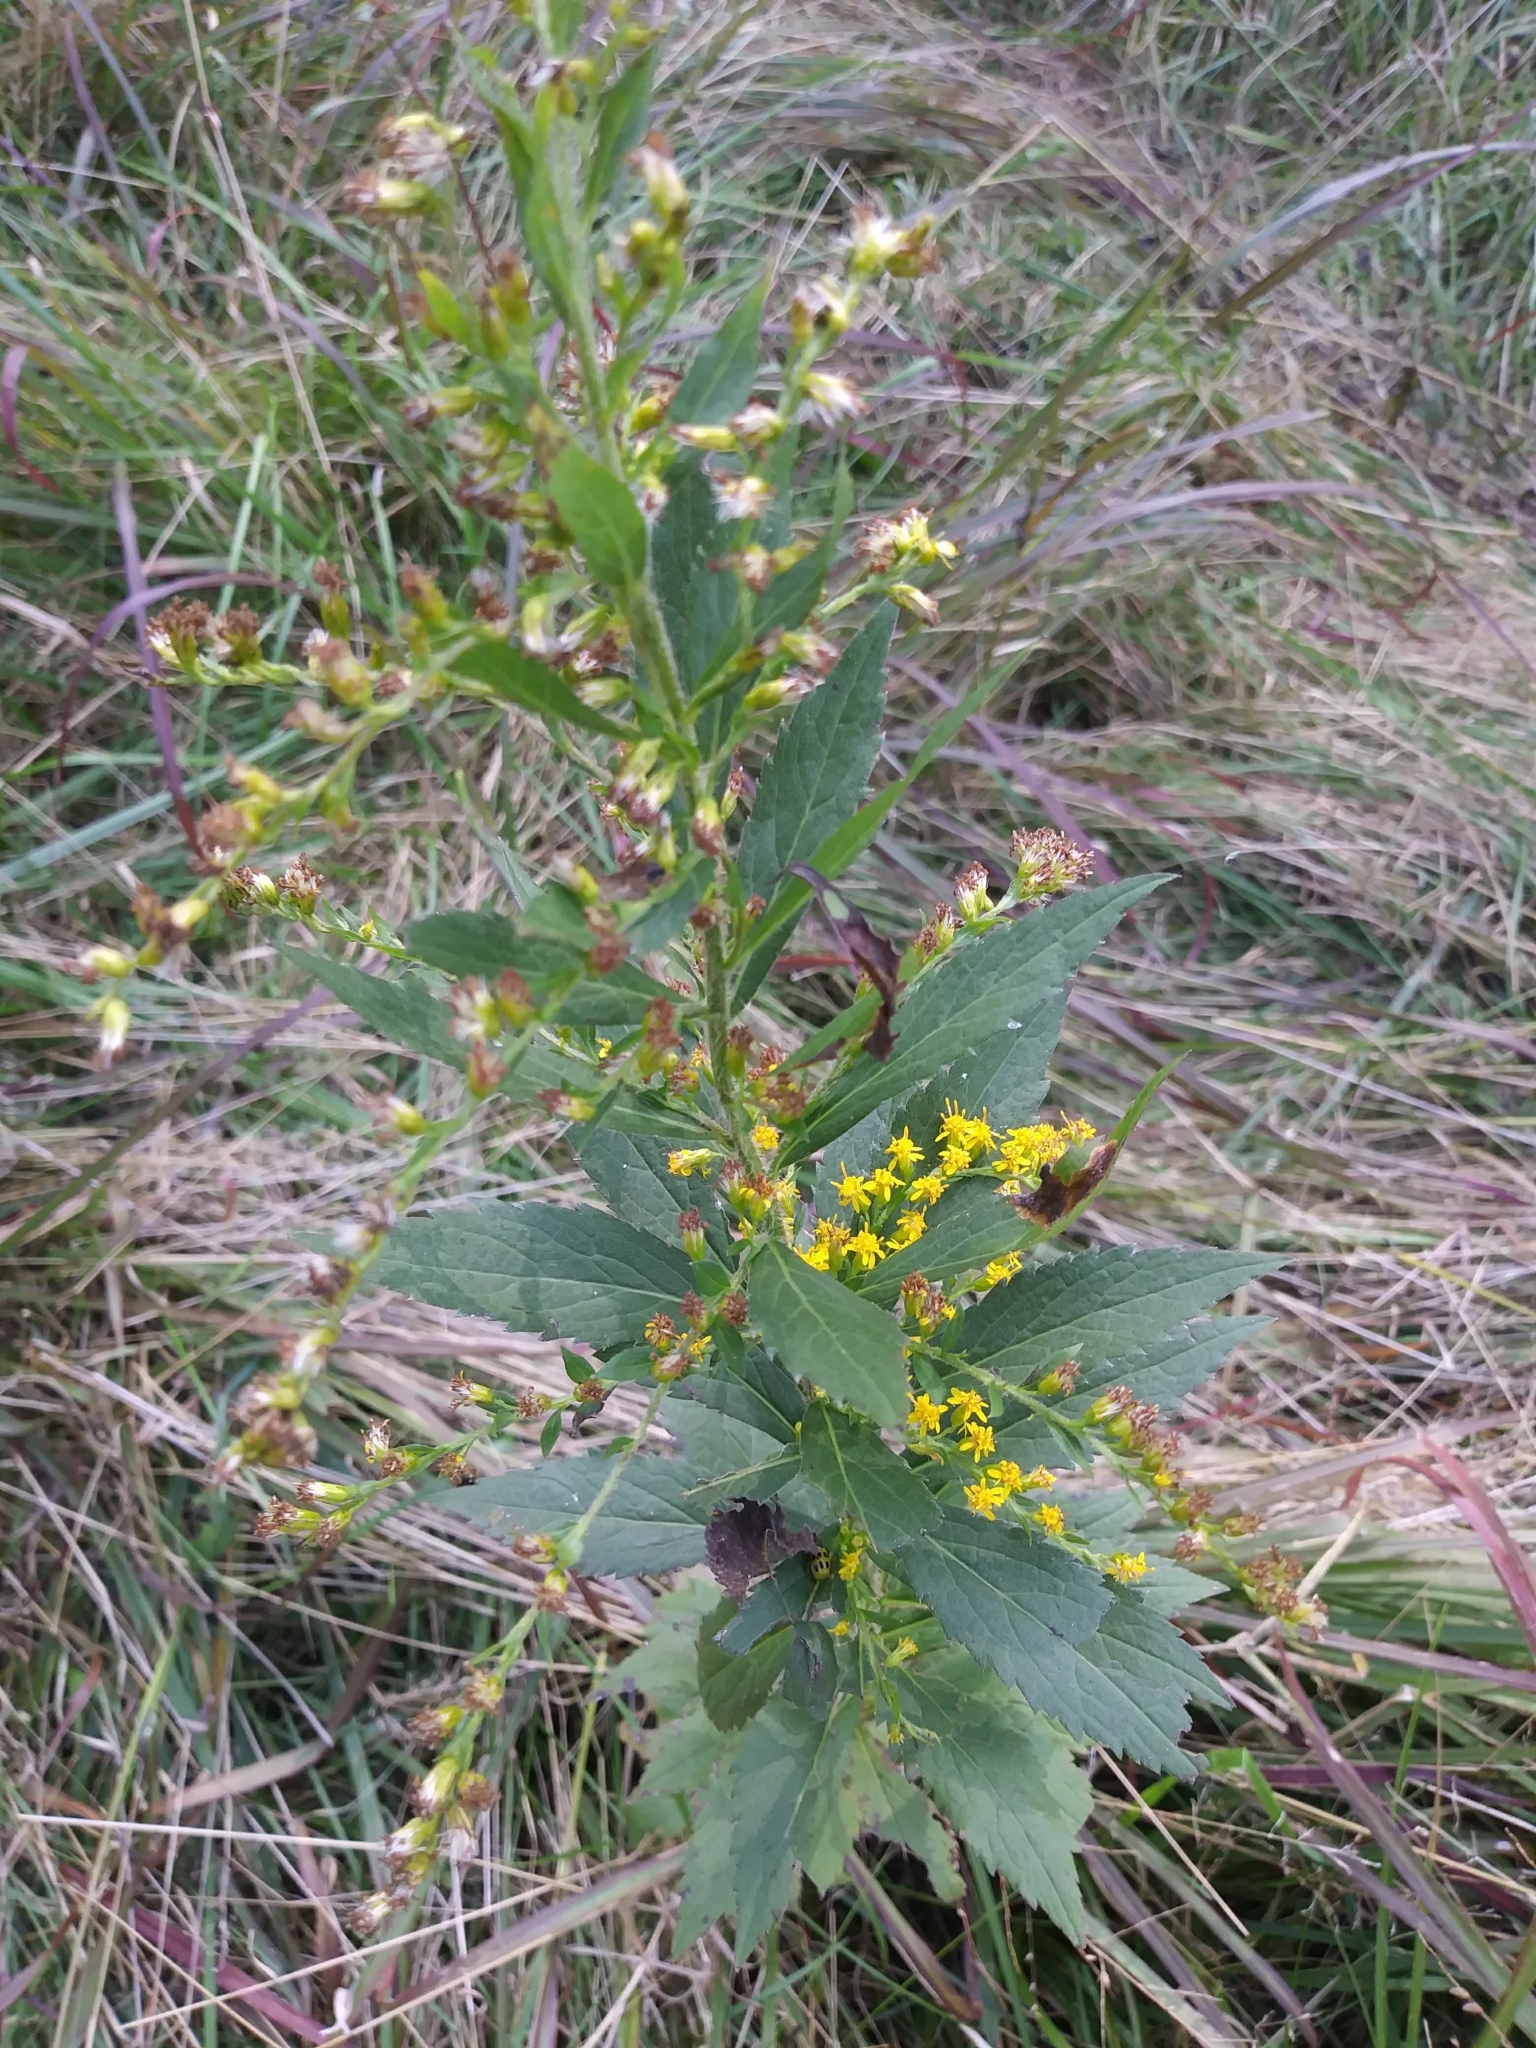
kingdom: Plantae
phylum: Tracheophyta
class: Magnoliopsida
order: Asterales
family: Asteraceae
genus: Solidago
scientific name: Solidago rugosa
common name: Rough-stemmed goldenrod
